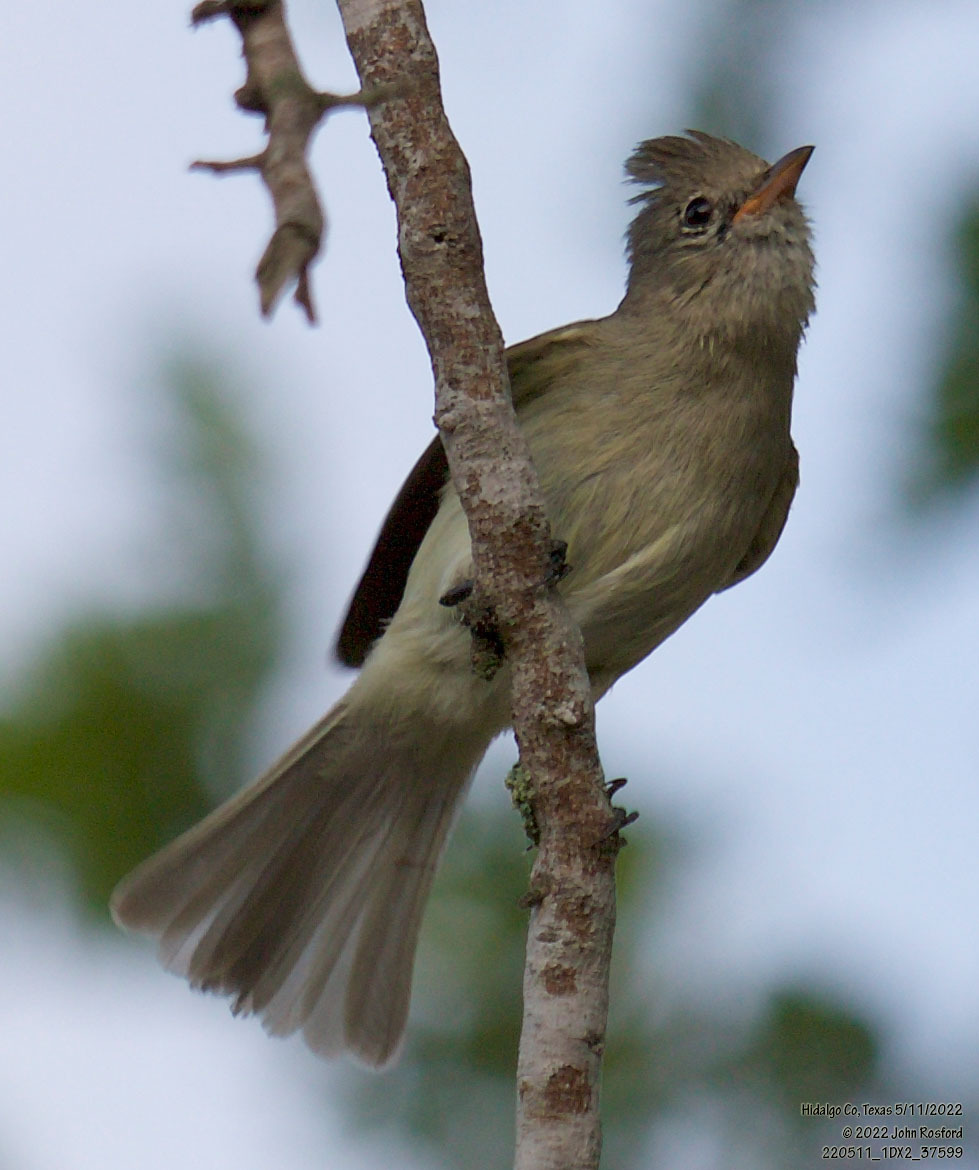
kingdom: Animalia
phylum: Chordata
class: Aves
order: Passeriformes
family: Tyrannidae
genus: Camptostoma
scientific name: Camptostoma imberbe
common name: Northern beardless-tyrannulet
